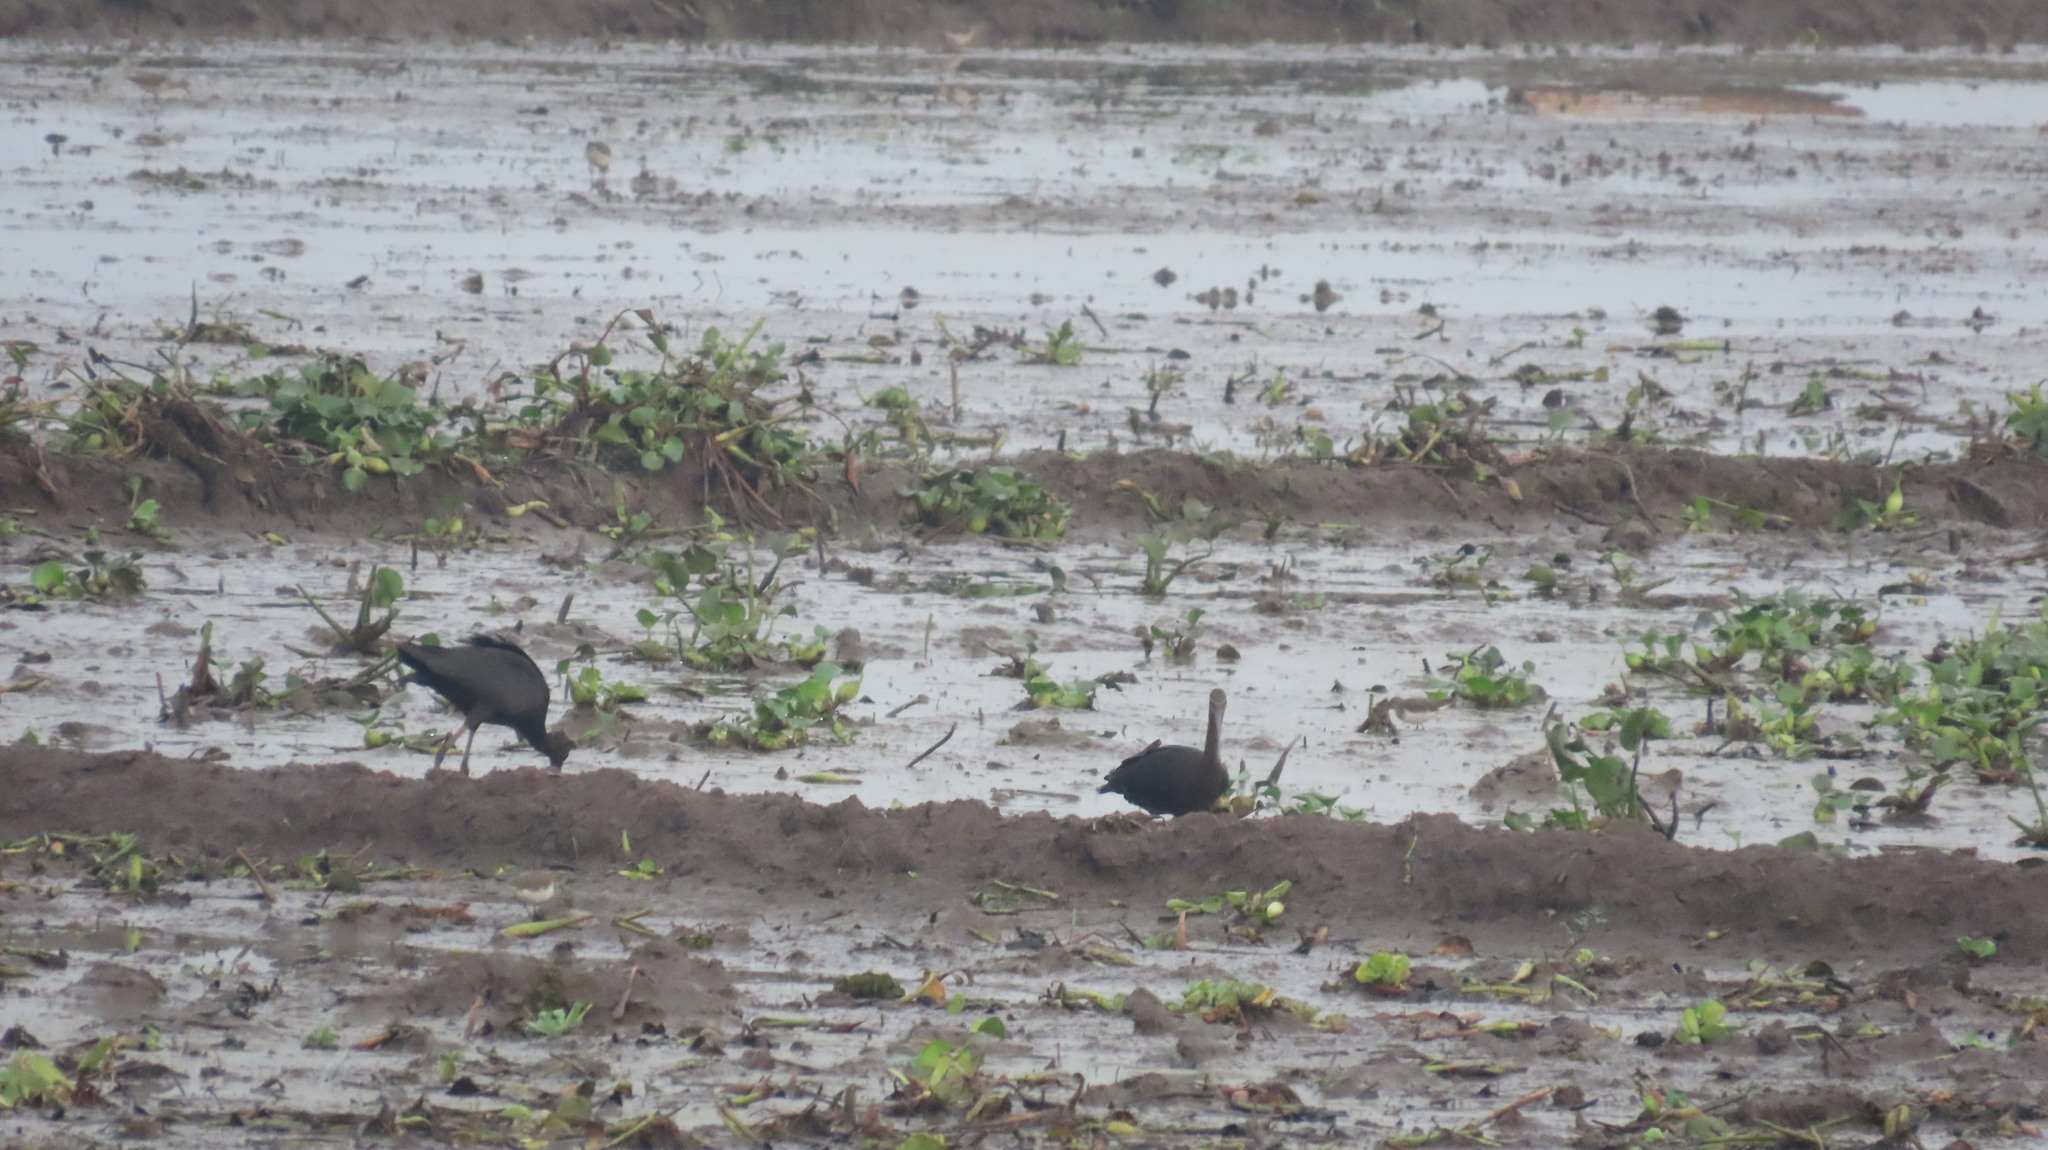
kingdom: Animalia
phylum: Chordata
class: Aves
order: Pelecaniformes
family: Threskiornithidae
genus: Plegadis
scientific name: Plegadis falcinellus
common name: Glossy ibis
